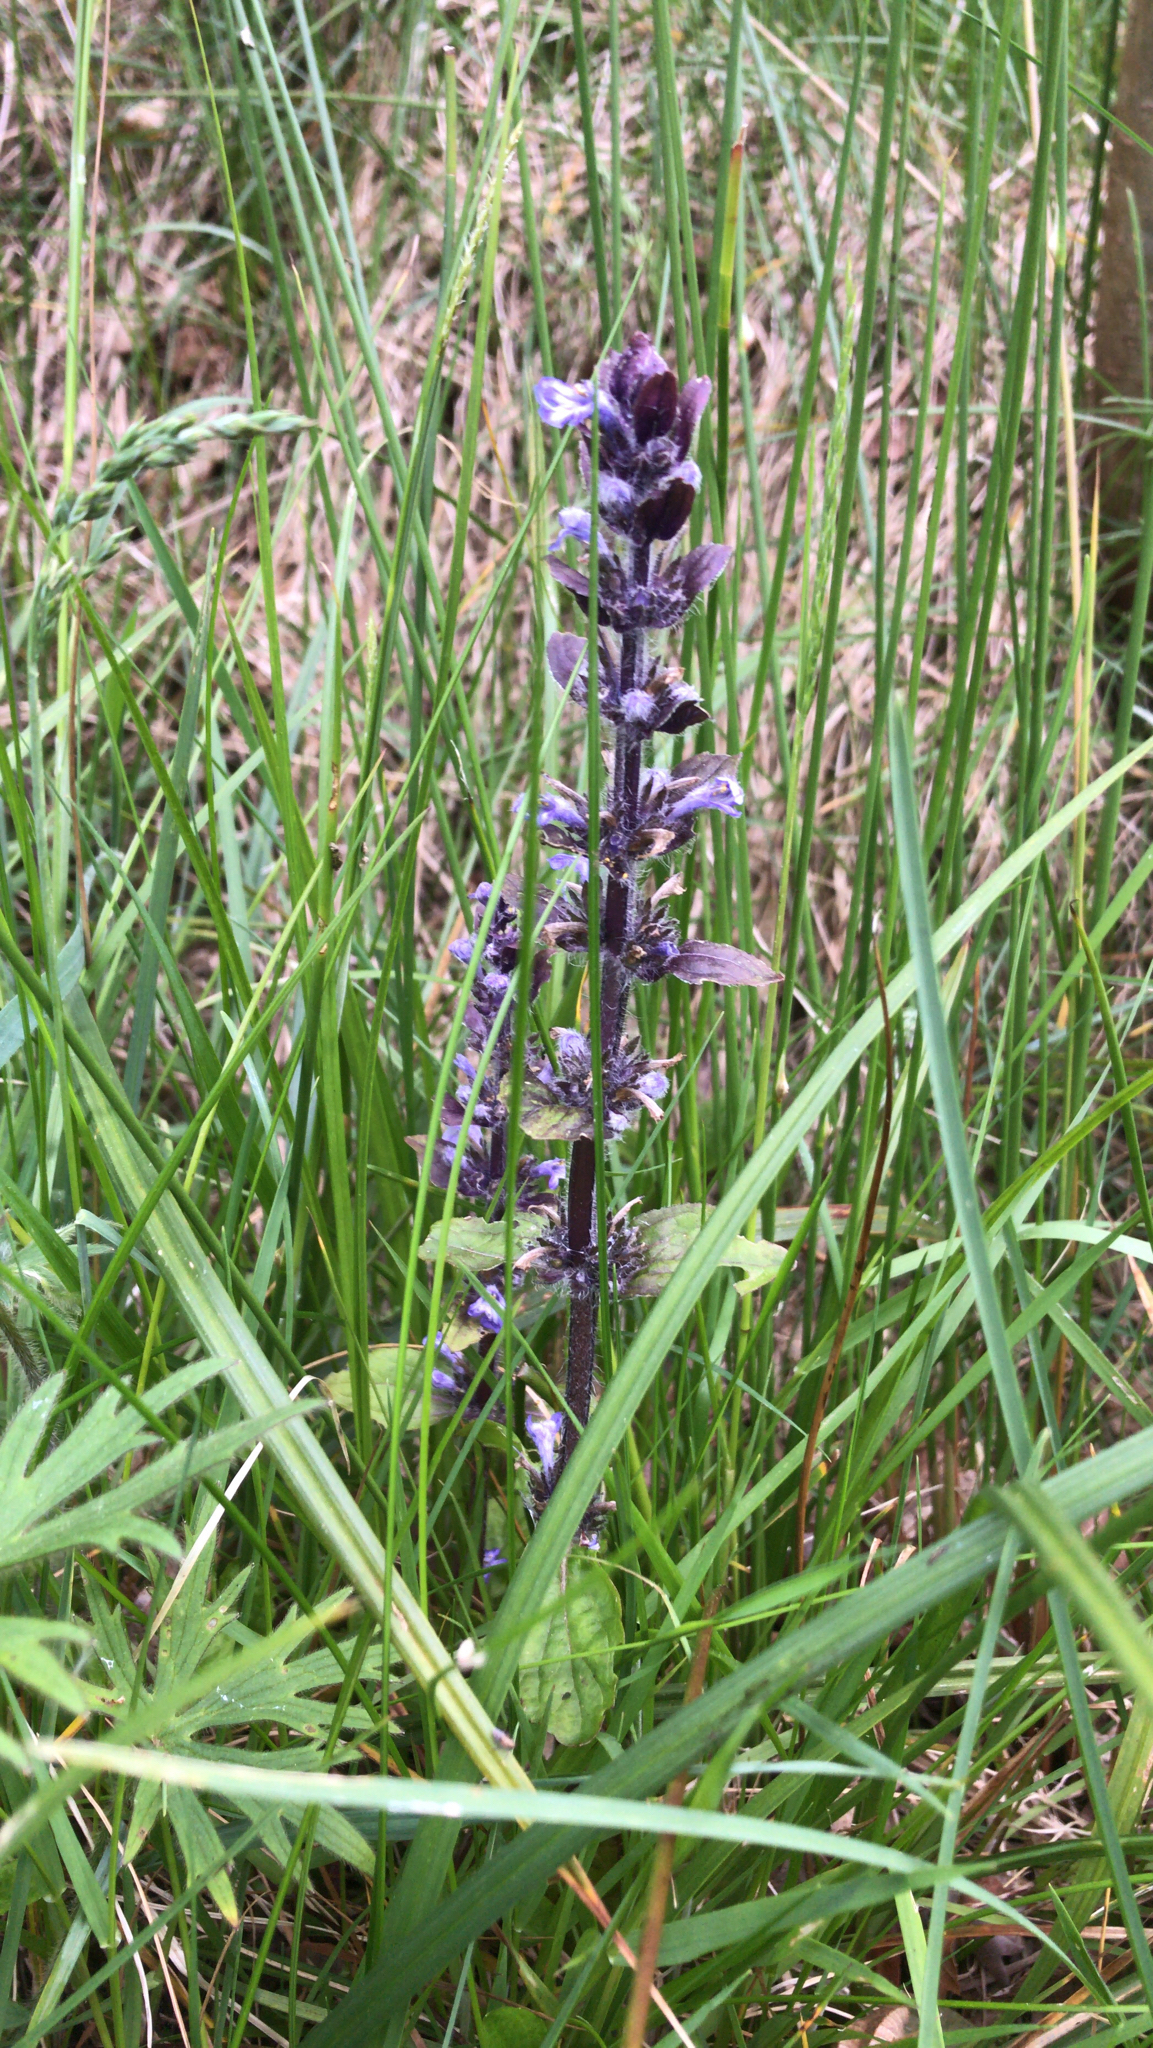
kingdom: Plantae
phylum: Tracheophyta
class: Magnoliopsida
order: Lamiales
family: Lamiaceae
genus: Ajuga
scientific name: Ajuga reptans
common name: Bugle
